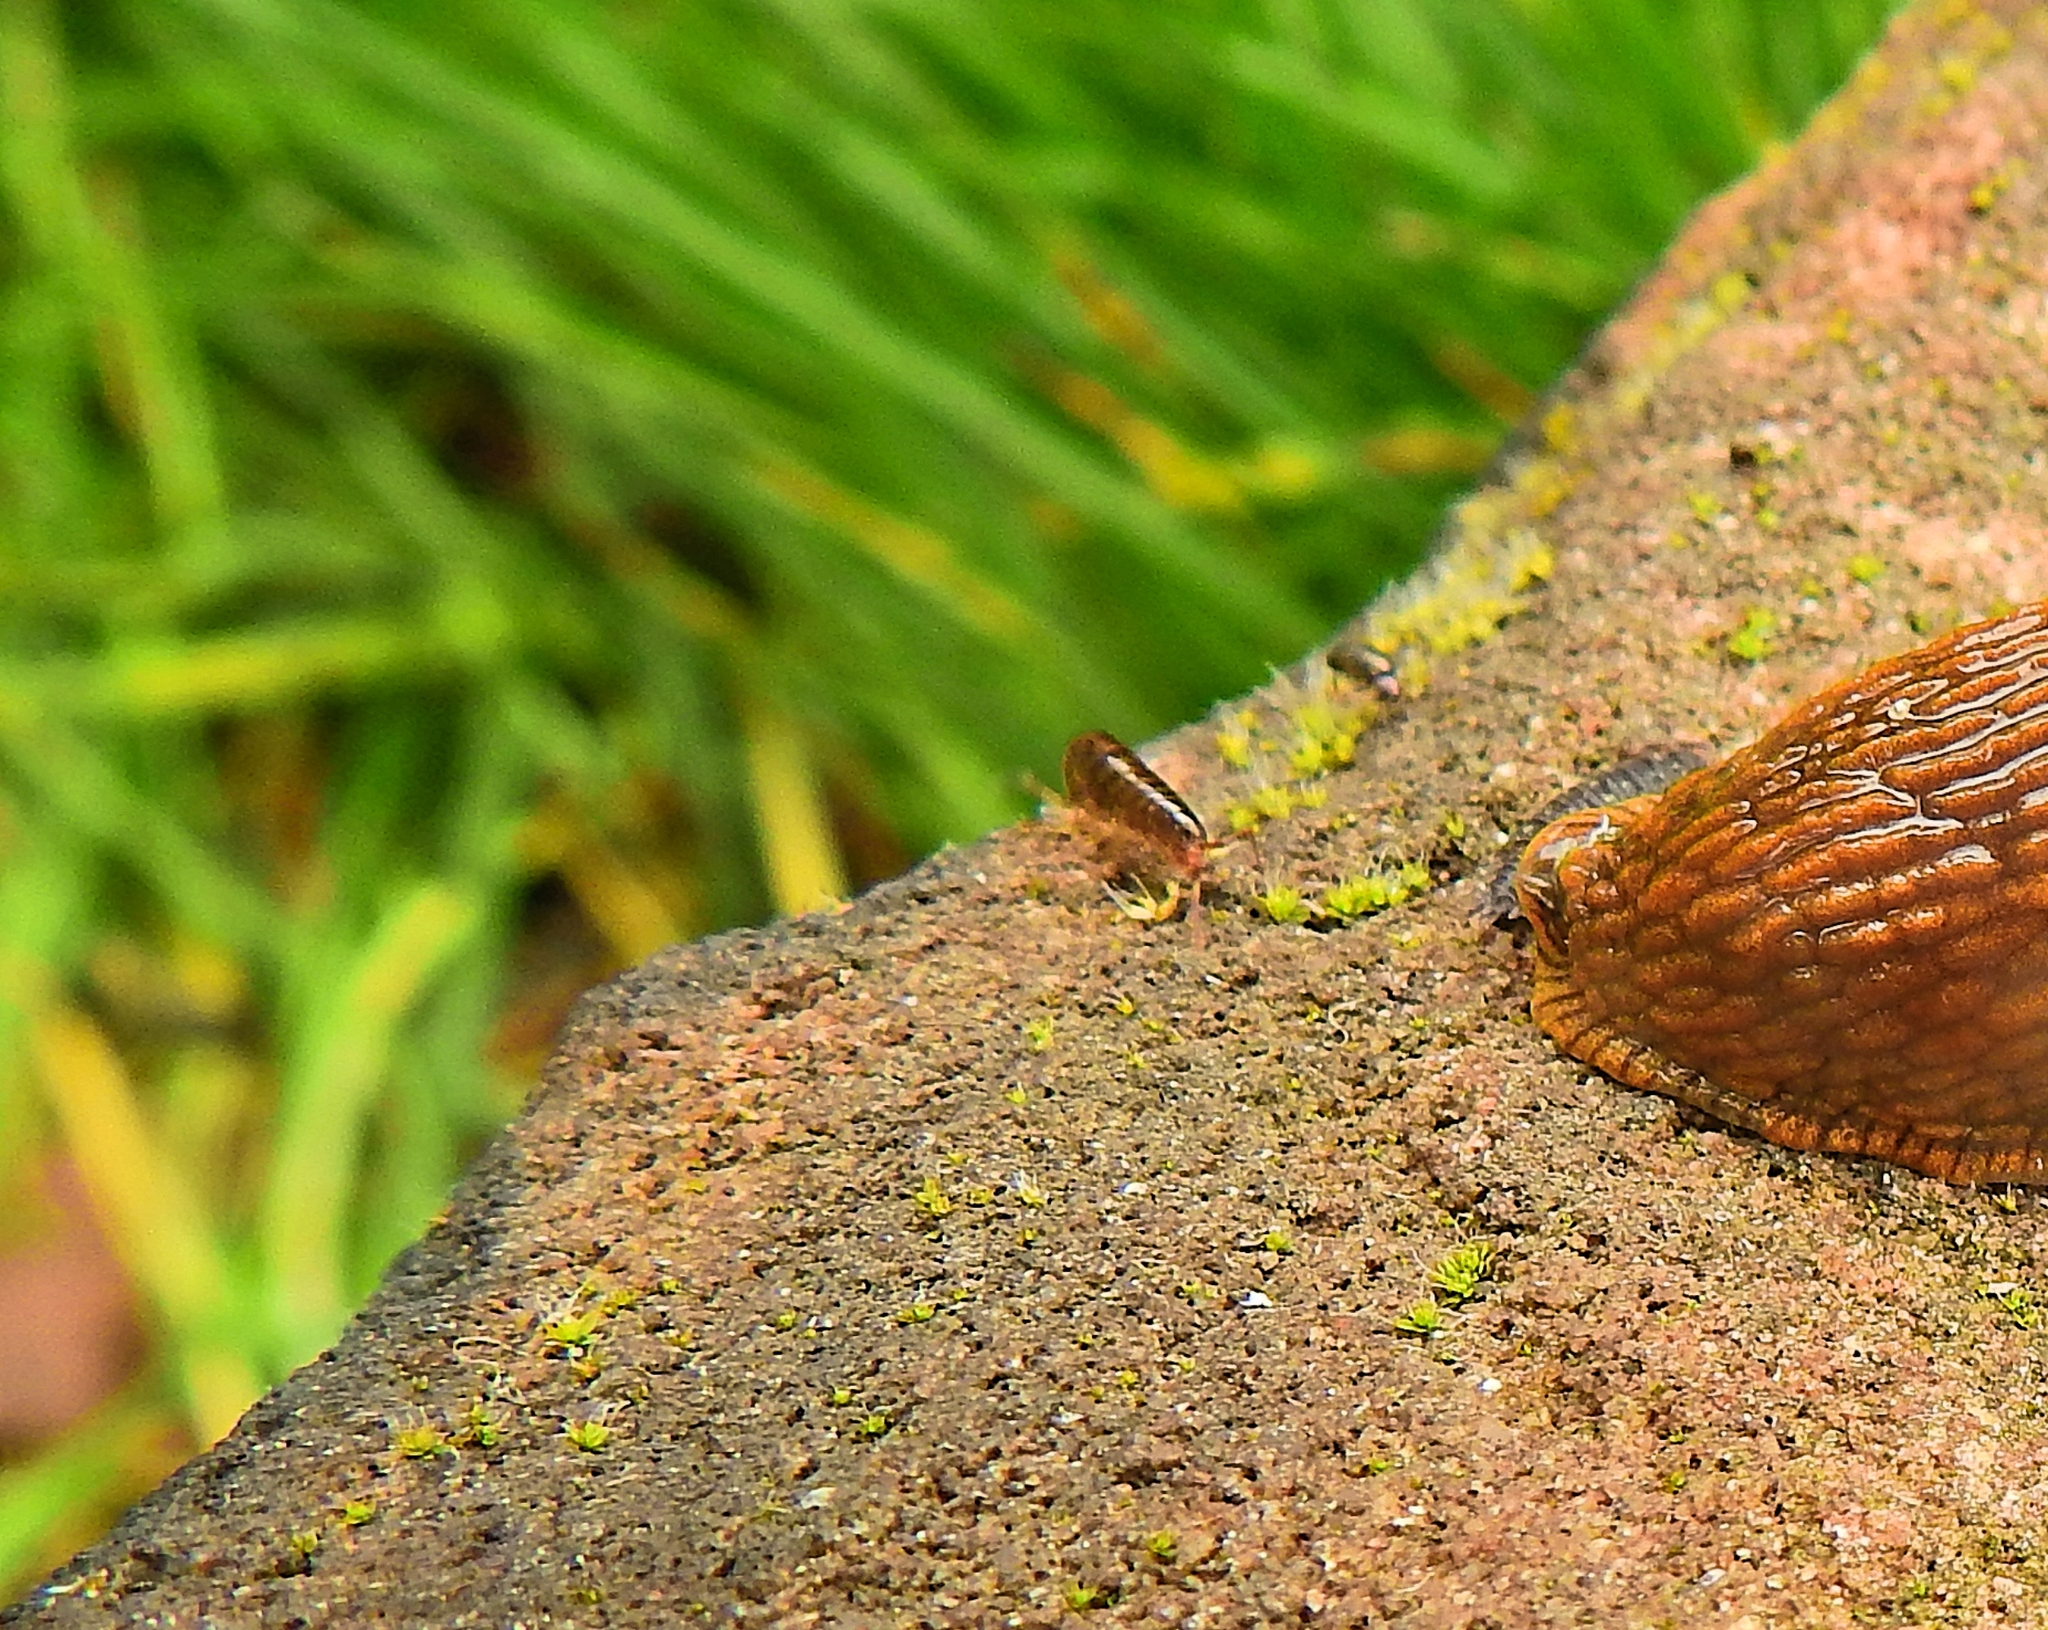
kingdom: Animalia
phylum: Arthropoda
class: Malacostraca
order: Amphipoda
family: Arcitalitridae
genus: Arcitalitrus
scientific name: Arcitalitrus dorrieni
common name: Landhopper
